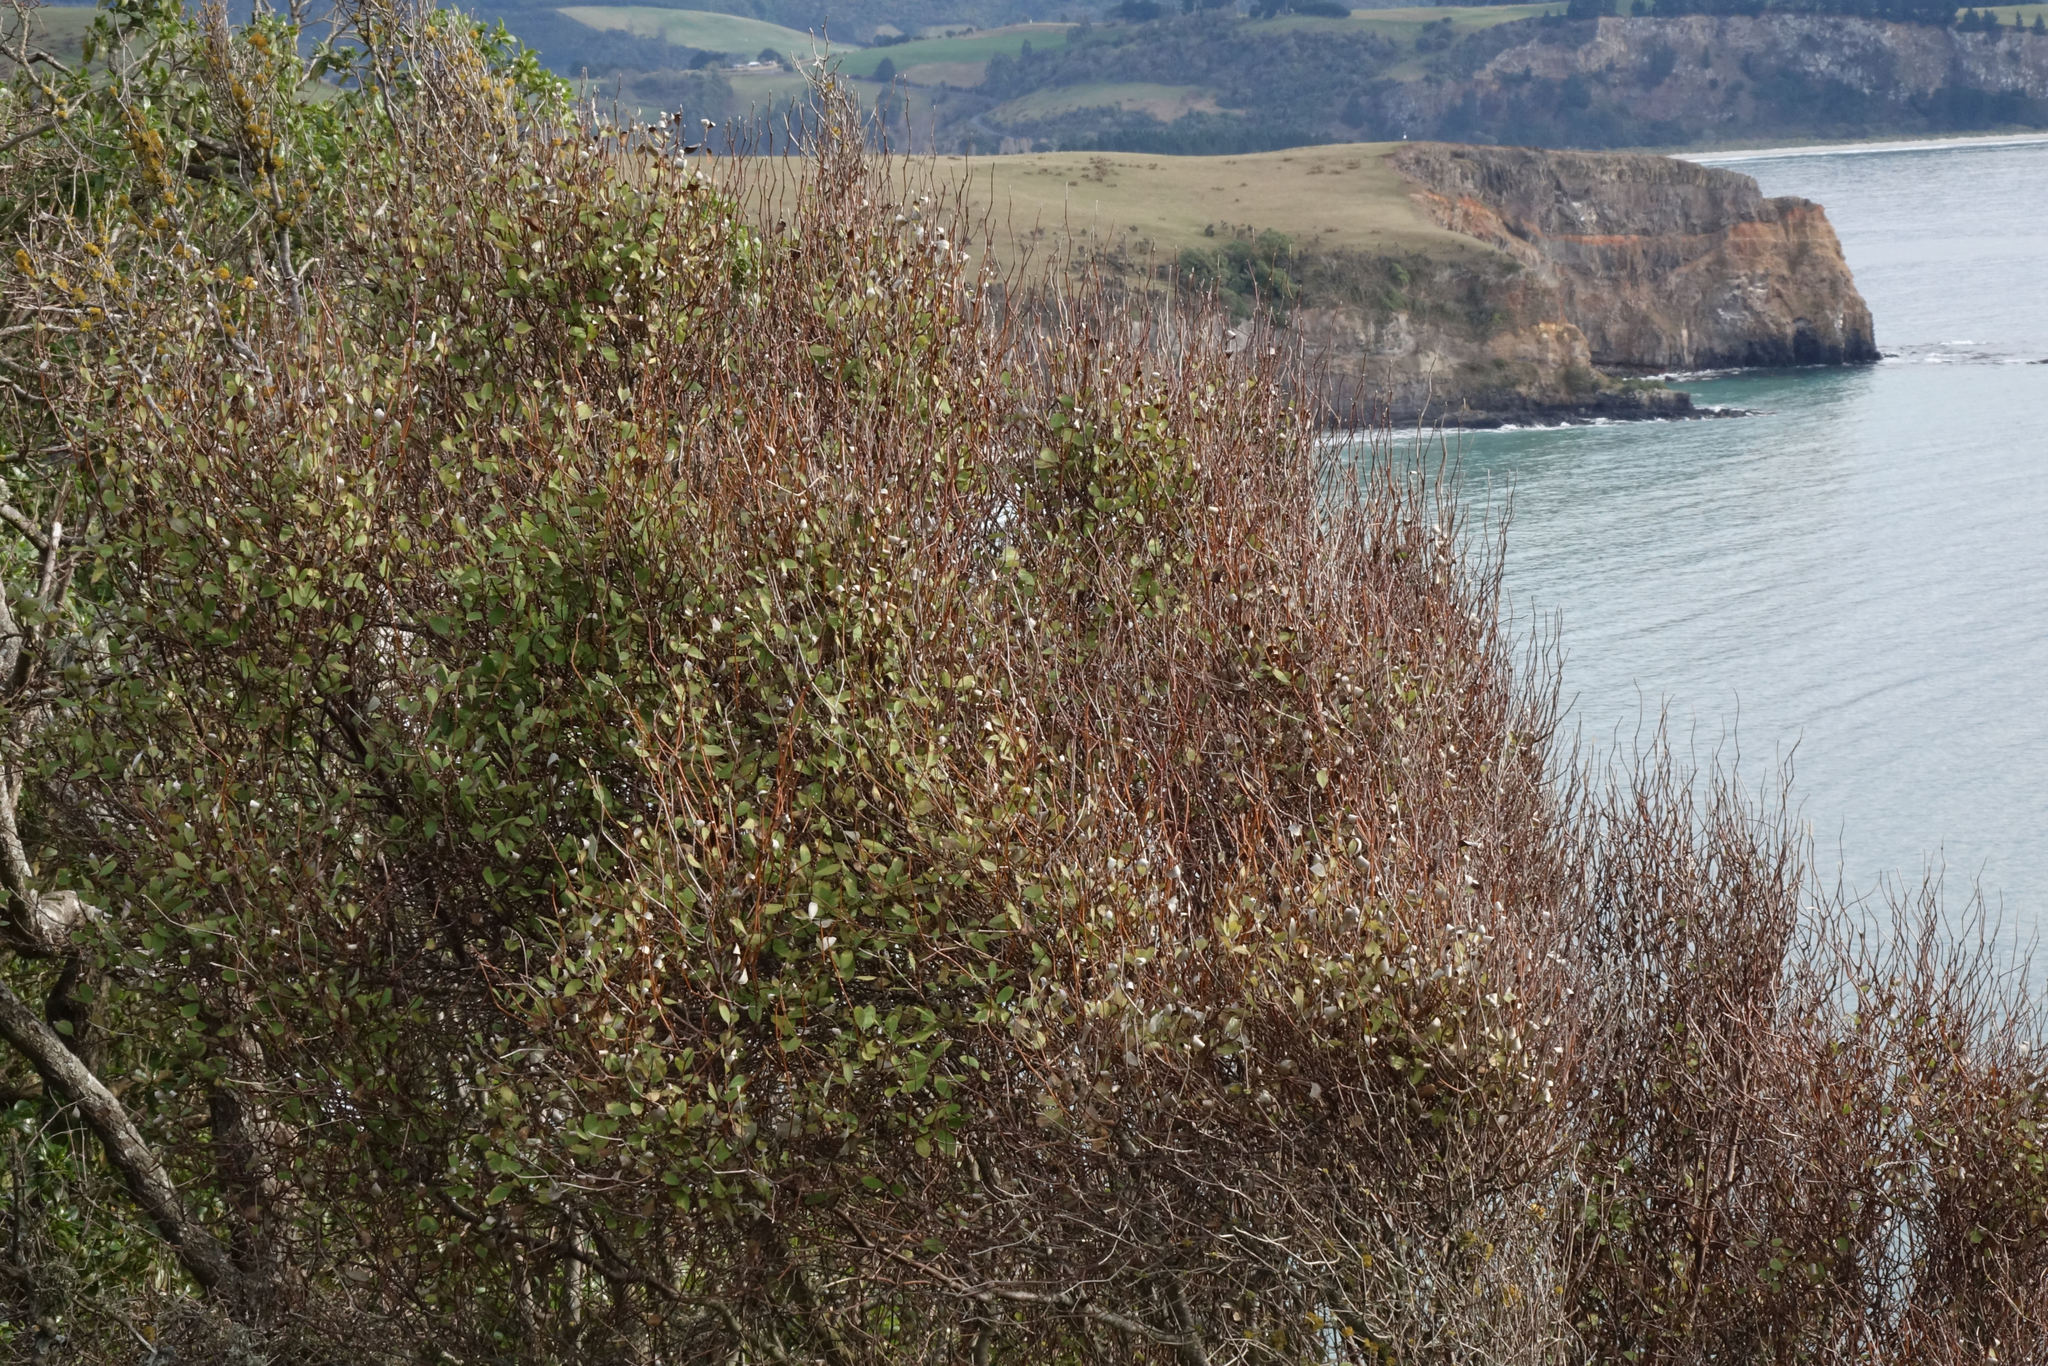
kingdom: Plantae
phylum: Tracheophyta
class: Magnoliopsida
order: Asterales
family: Asteraceae
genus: Olearia
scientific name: Olearia fragrantissima
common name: Fragrant tree daisy
